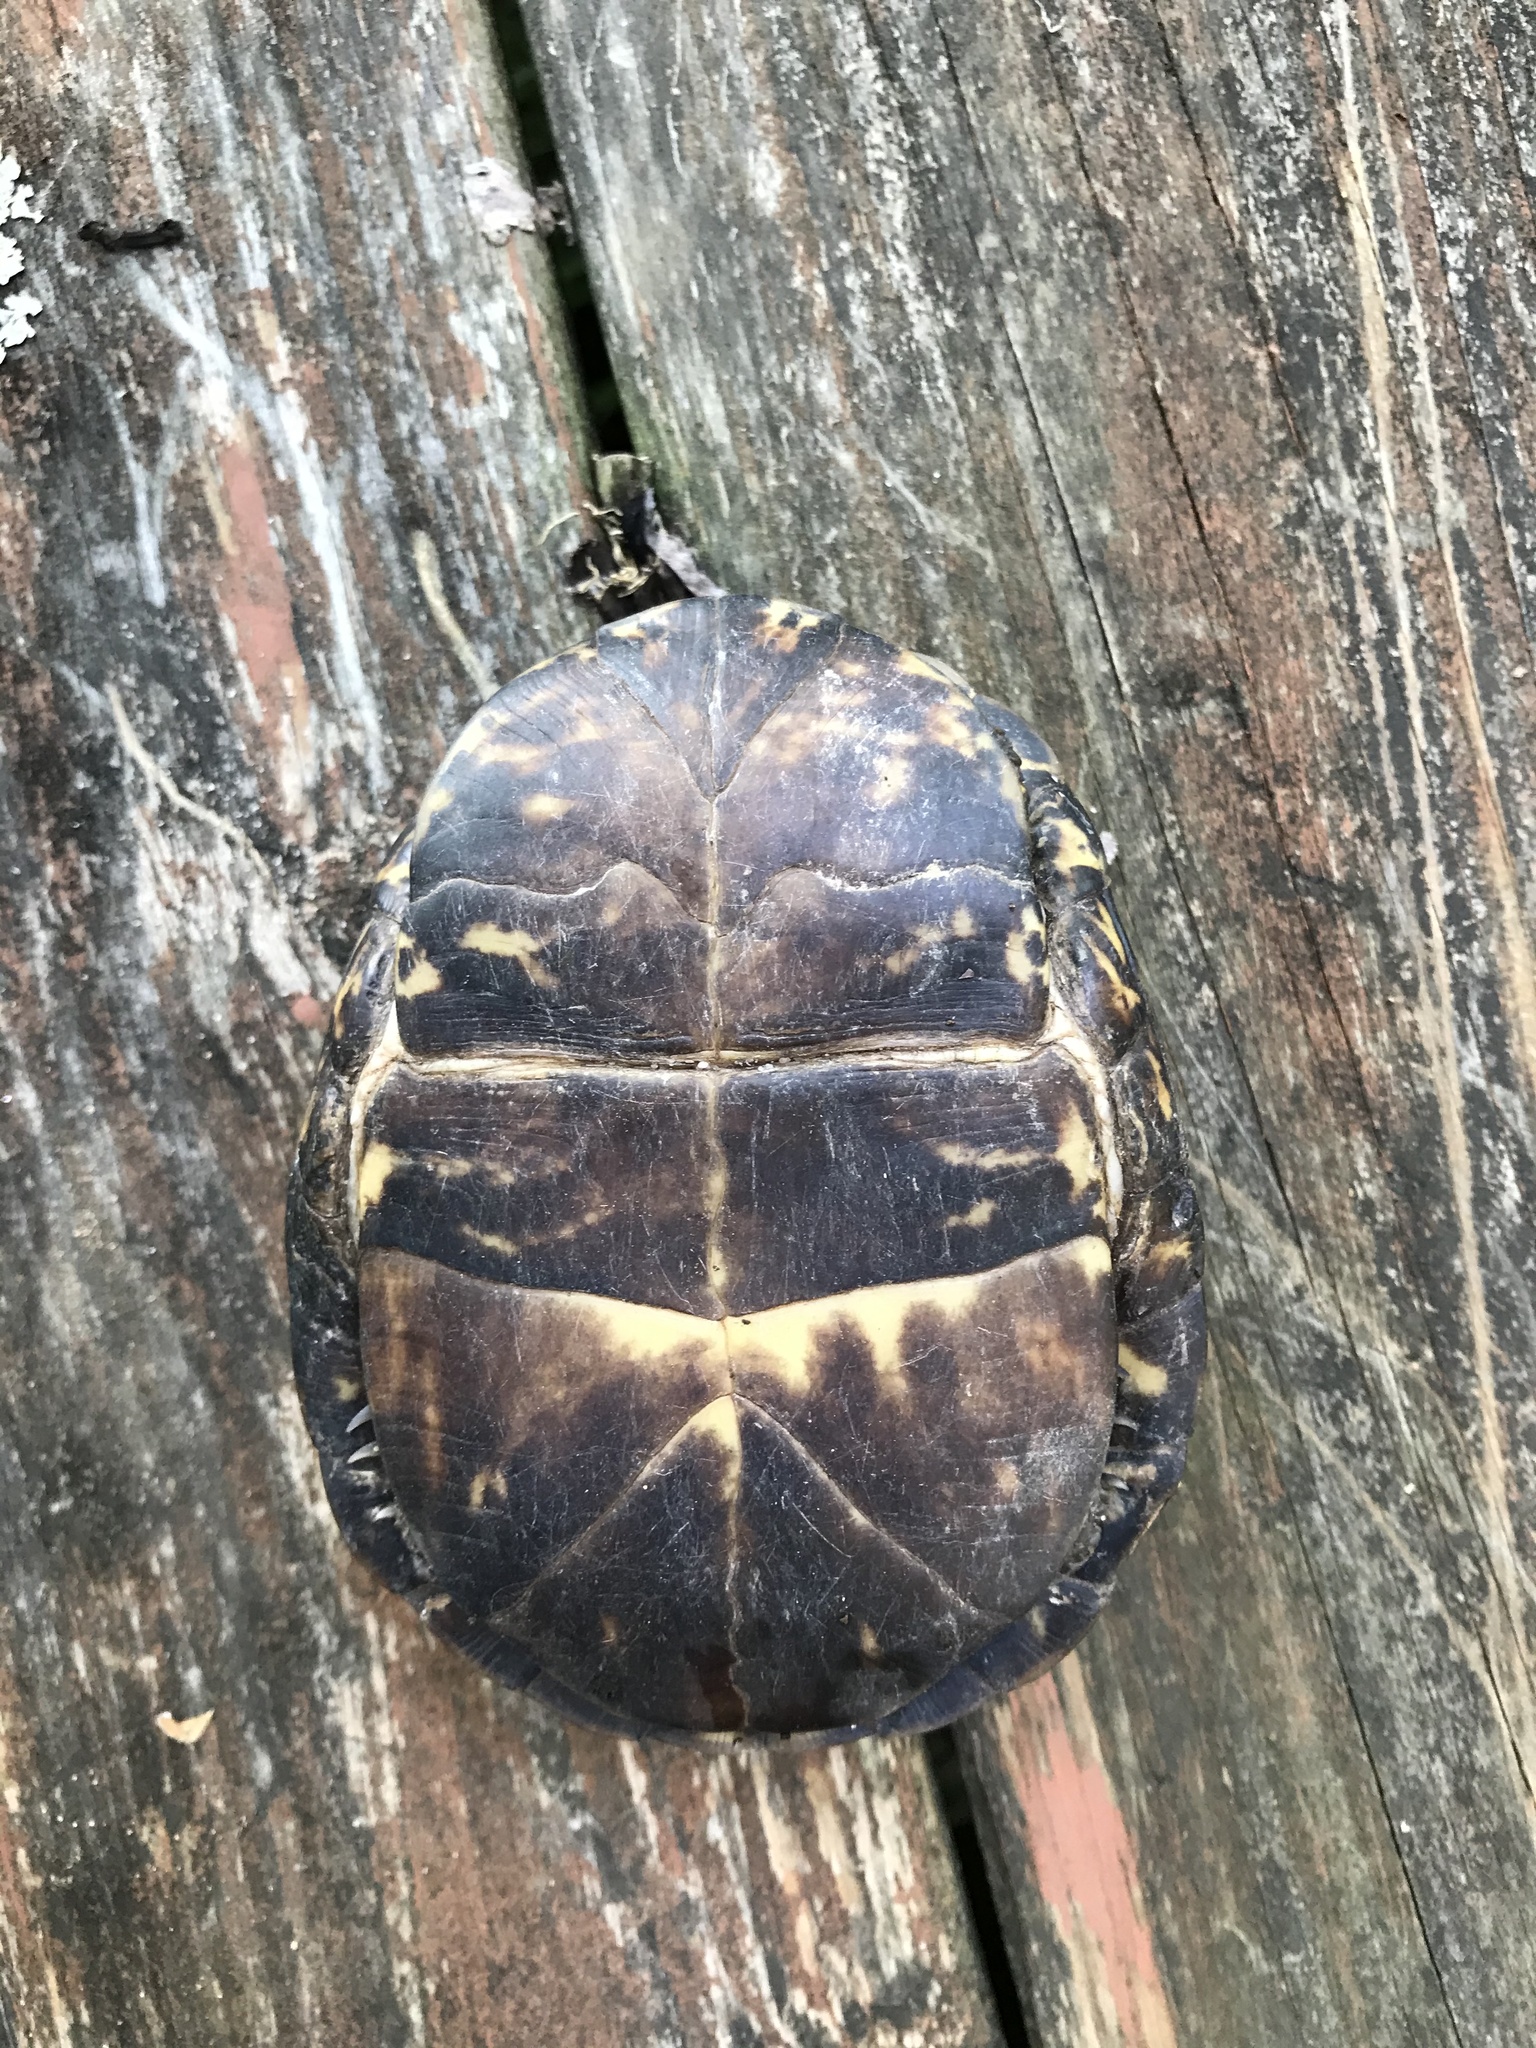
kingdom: Animalia
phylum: Chordata
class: Testudines
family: Emydidae
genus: Terrapene
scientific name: Terrapene carolina
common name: Common box turtle
